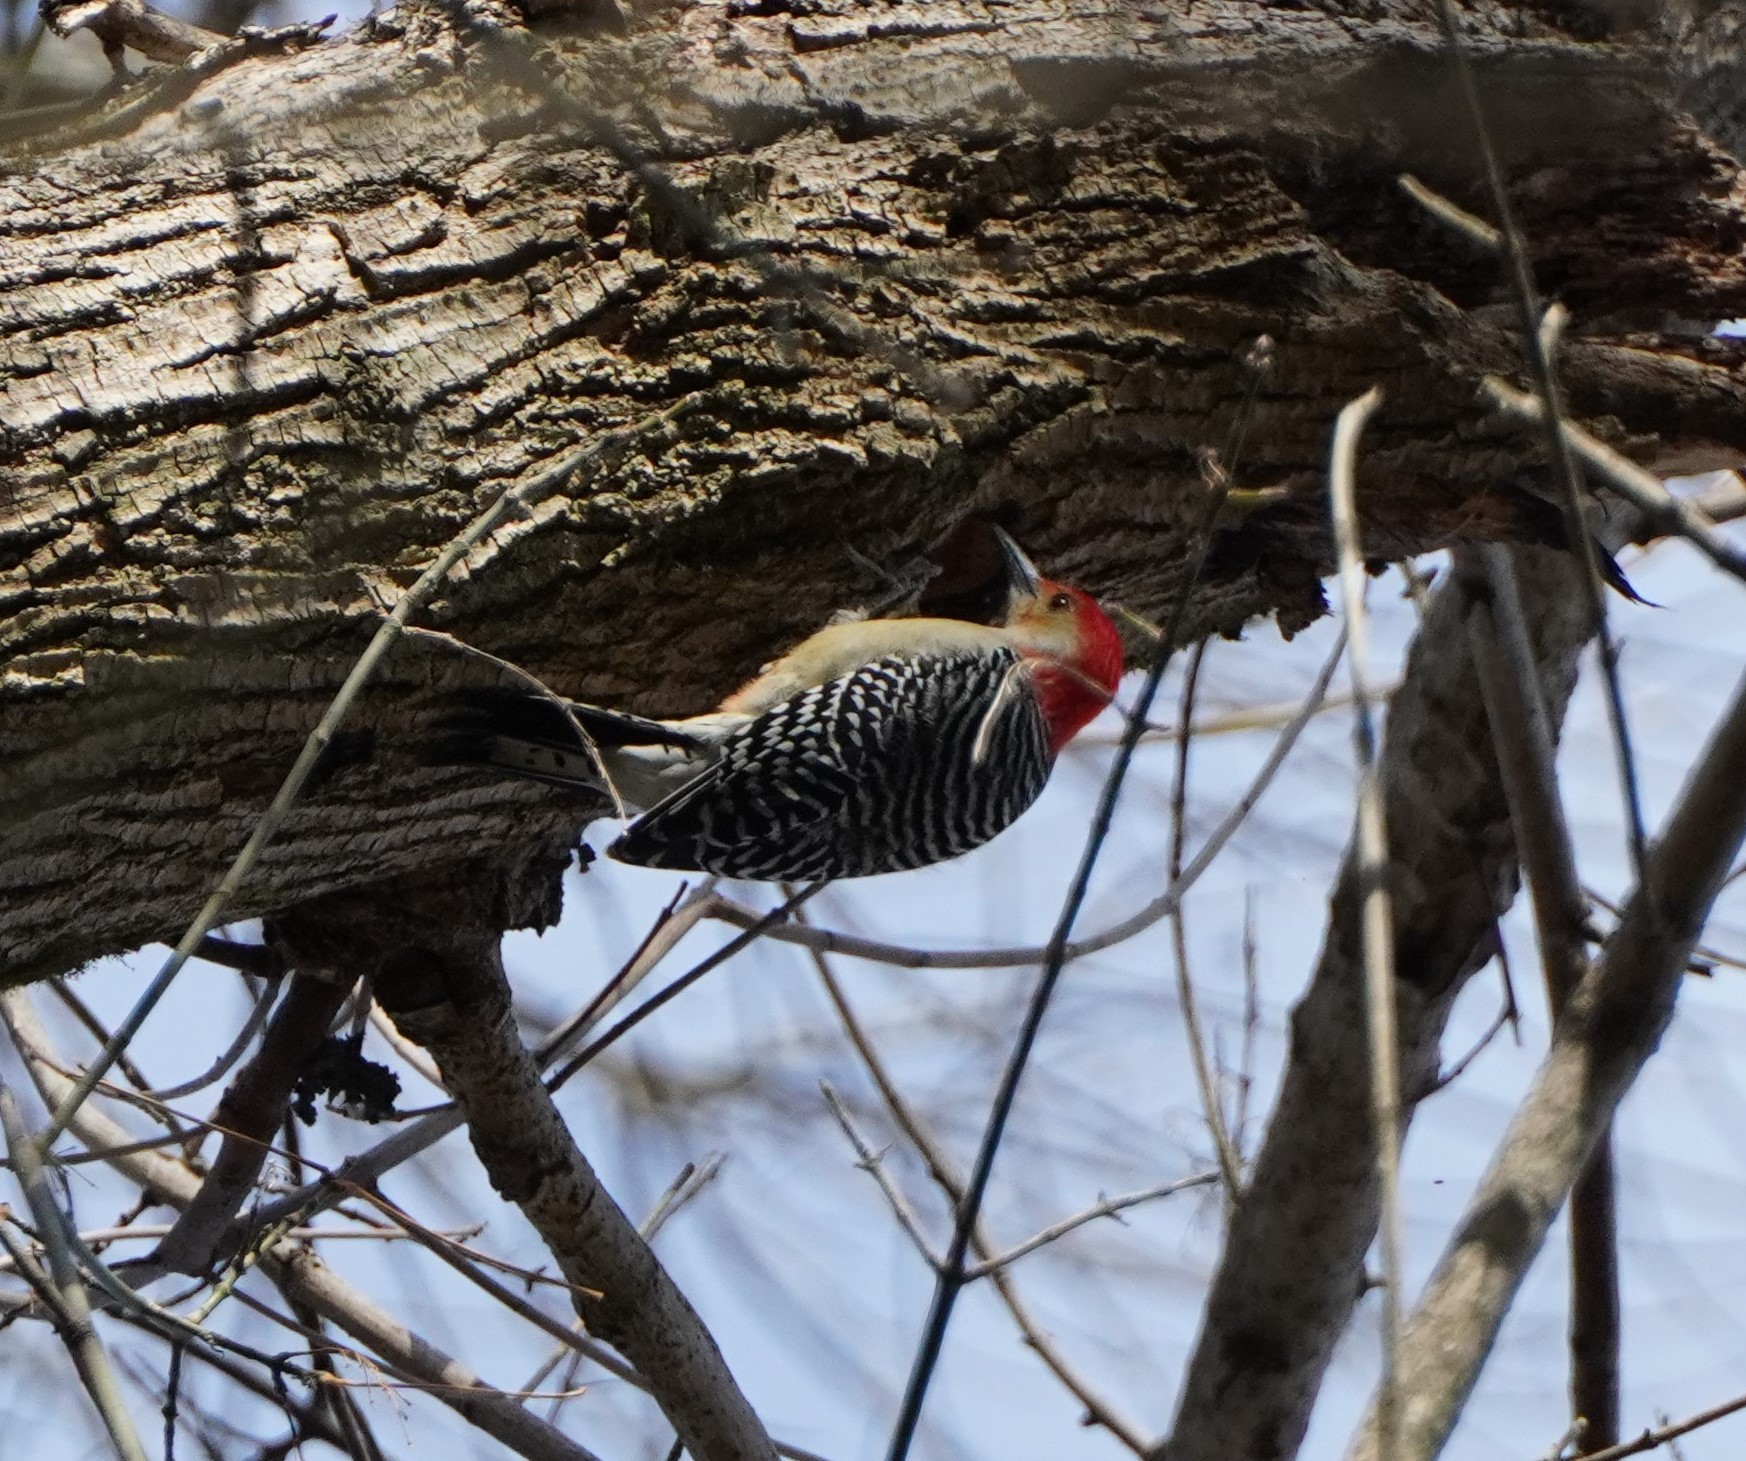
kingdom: Animalia
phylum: Chordata
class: Aves
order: Piciformes
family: Picidae
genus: Melanerpes
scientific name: Melanerpes carolinus
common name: Red-bellied woodpecker
